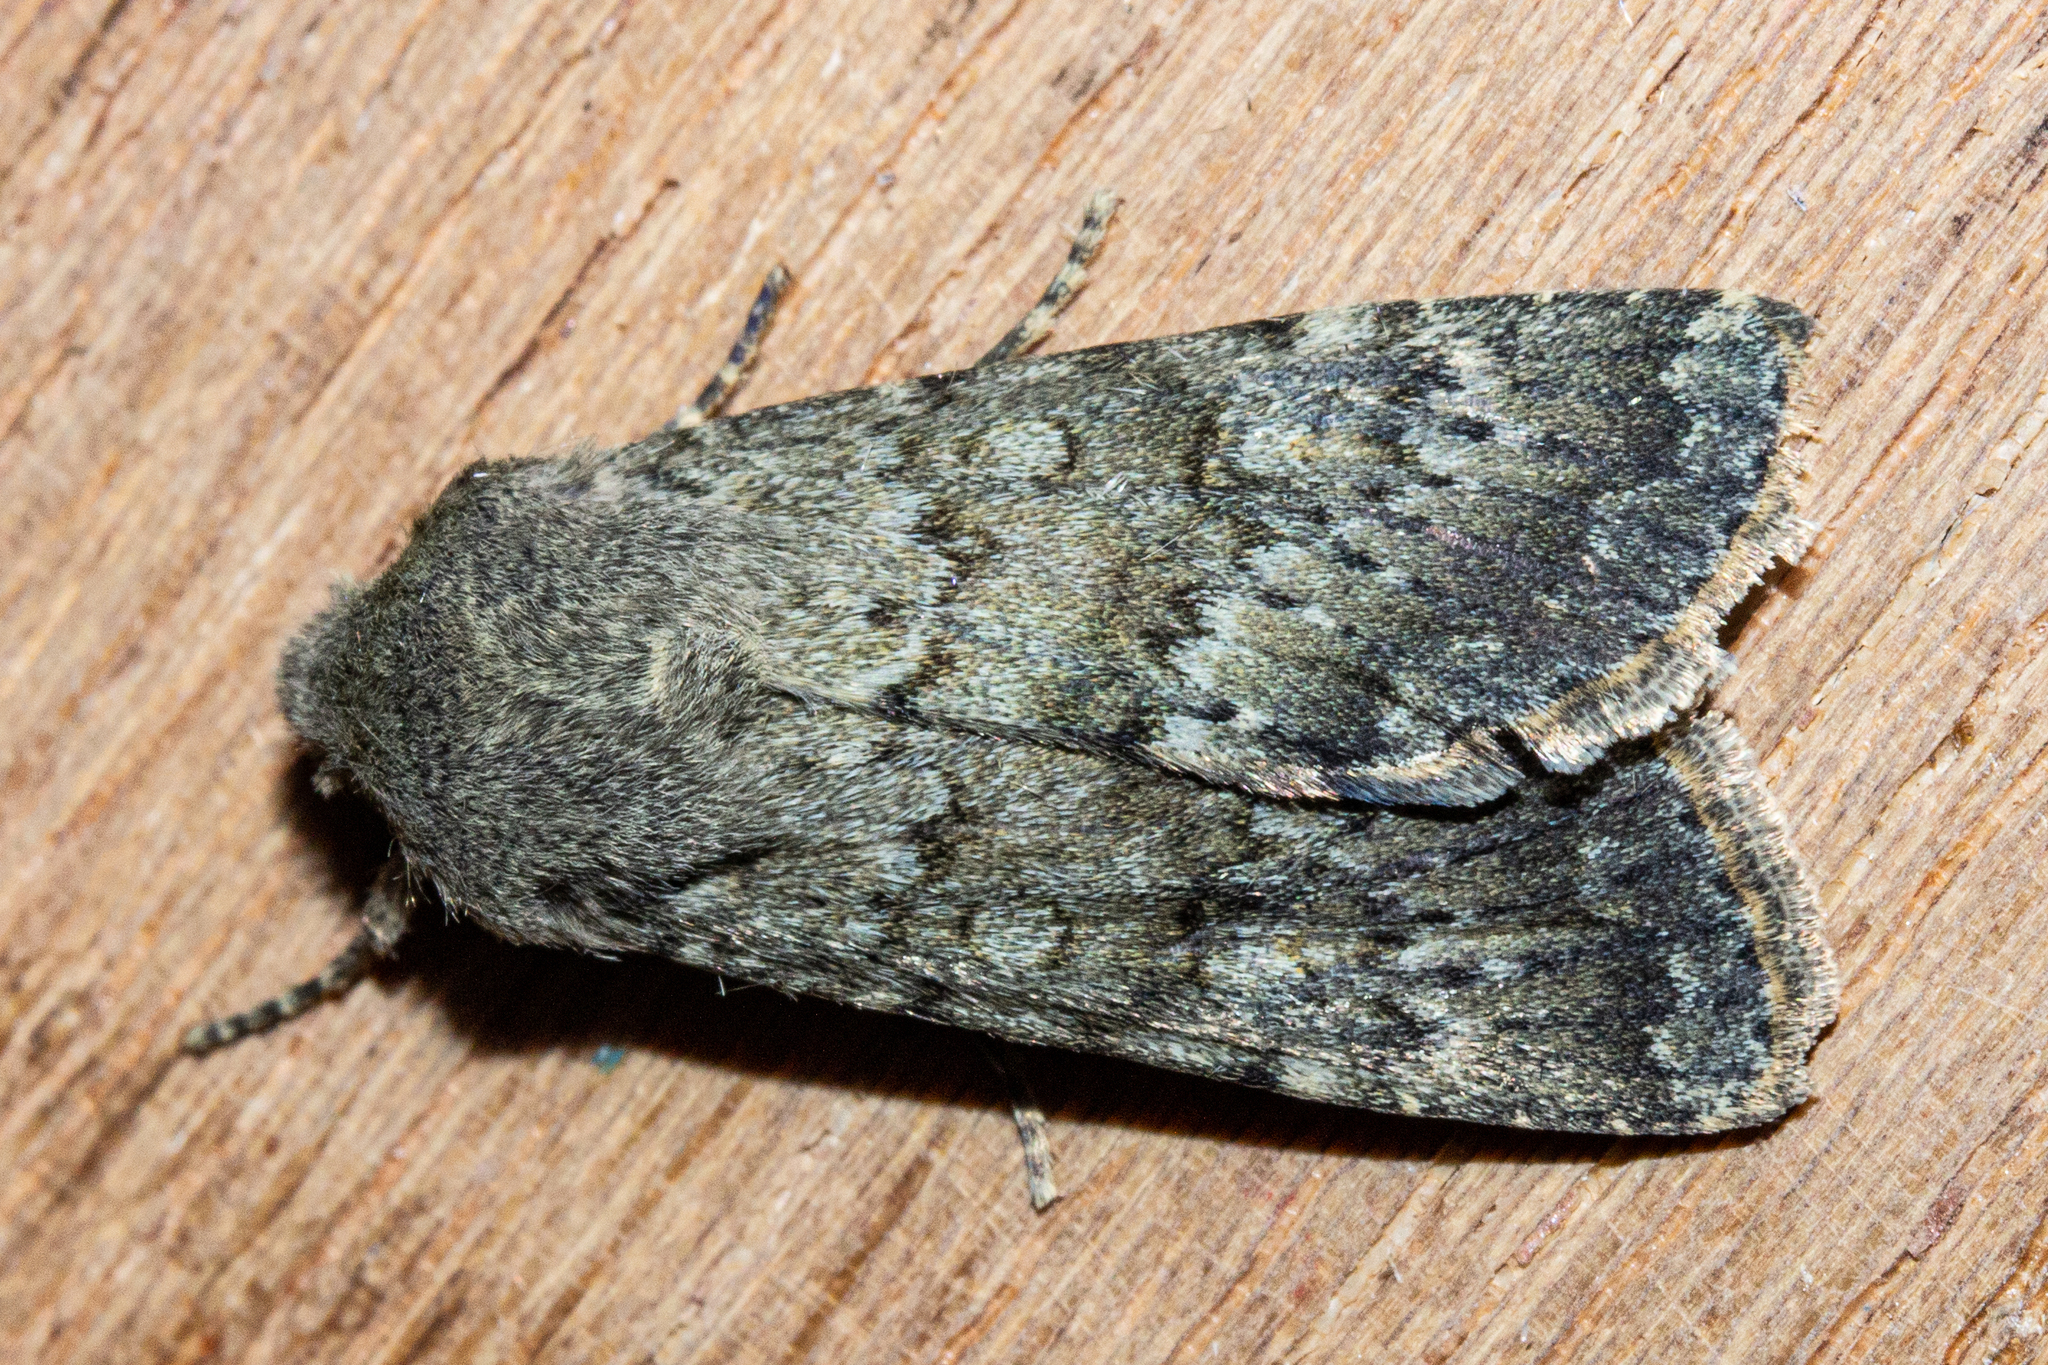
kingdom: Animalia
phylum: Arthropoda
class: Insecta
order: Lepidoptera
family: Noctuidae
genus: Ichneutica
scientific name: Ichneutica moderata
